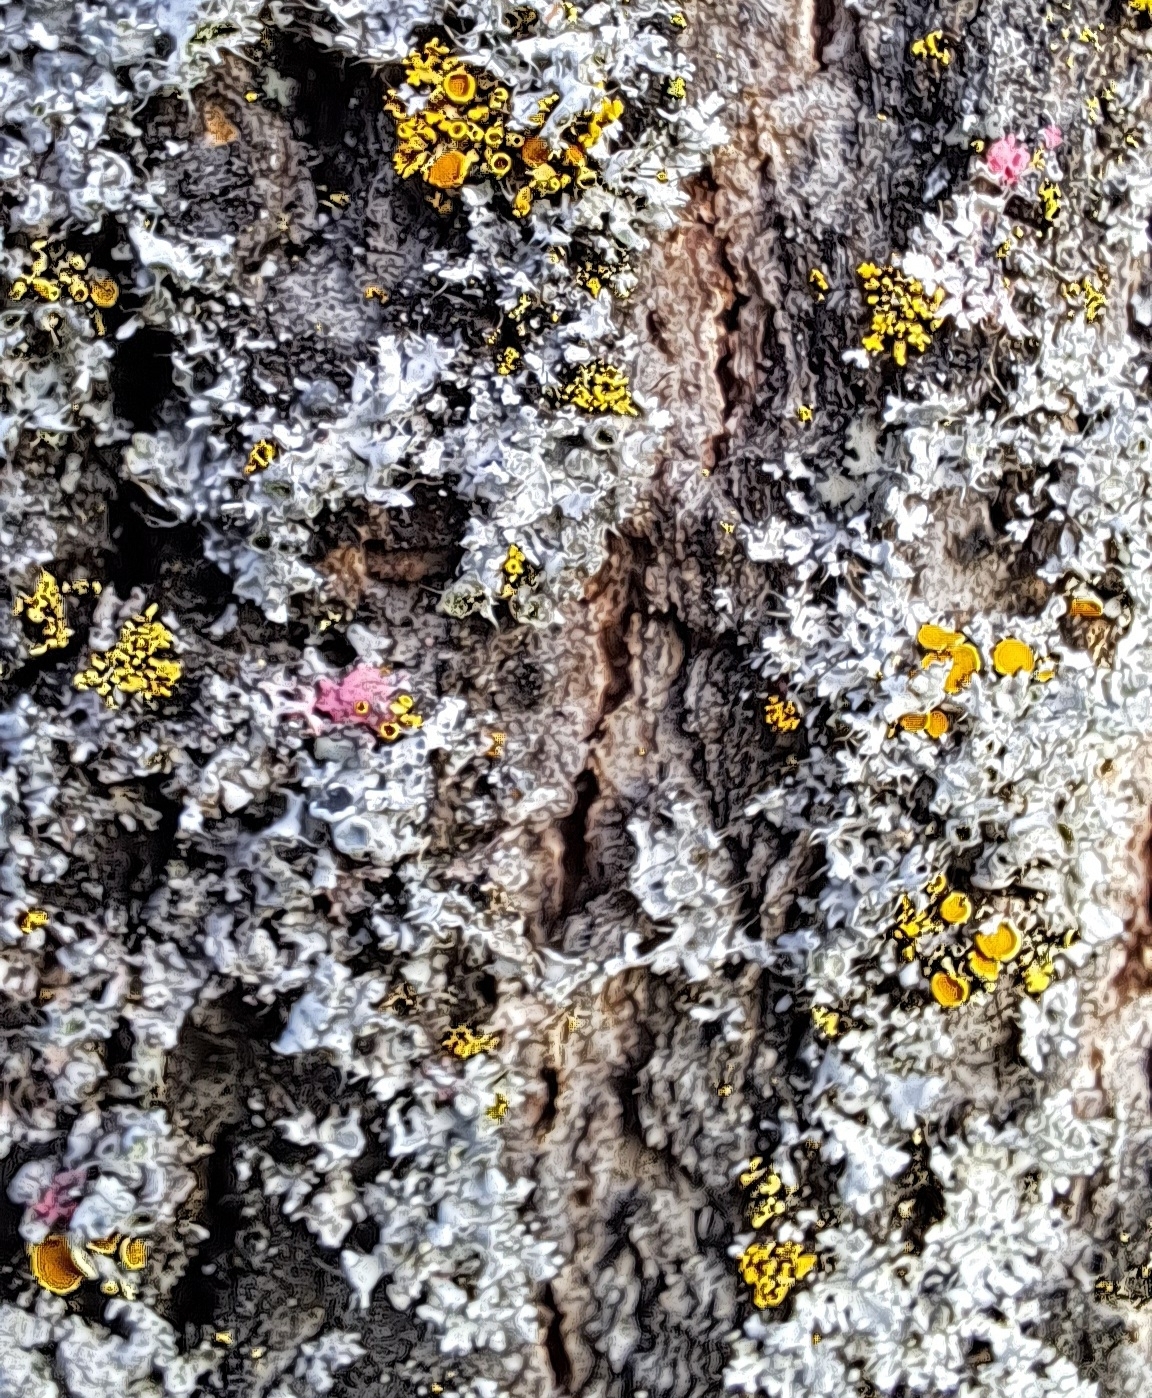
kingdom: Fungi
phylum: Ascomycota
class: Sordariomycetes
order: Hypocreales
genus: Illosporiopsis
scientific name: Illosporiopsis christiansenii
